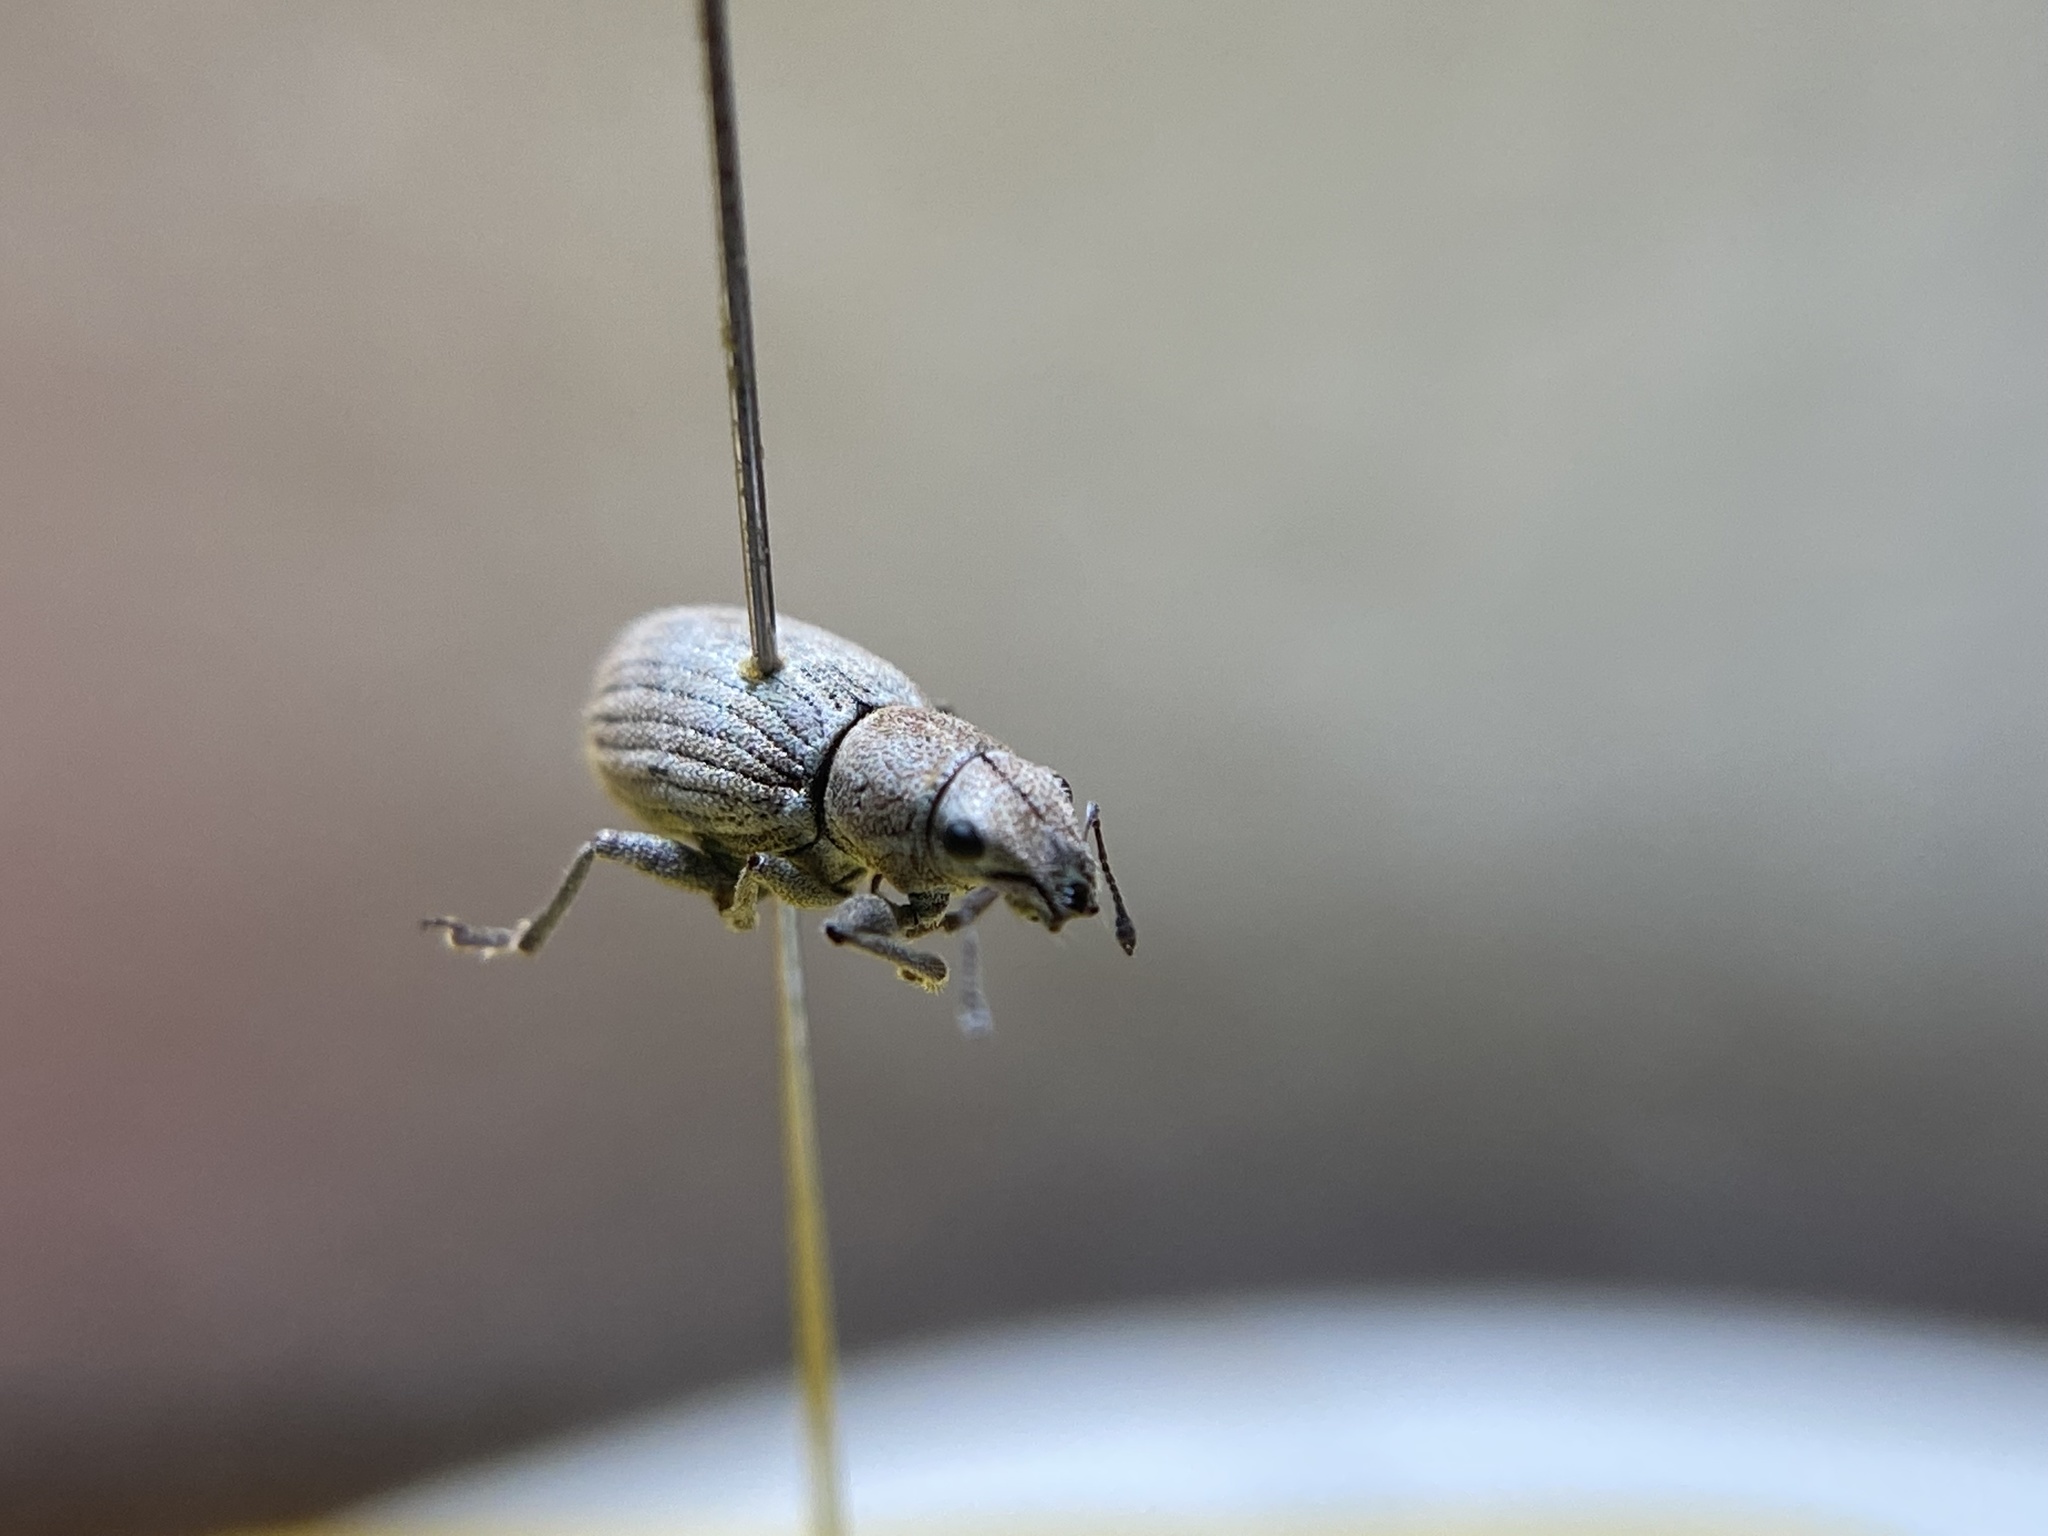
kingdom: Animalia
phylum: Arthropoda
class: Insecta
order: Coleoptera
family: Curculionidae
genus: Aramigus
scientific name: Aramigus tessellatus
